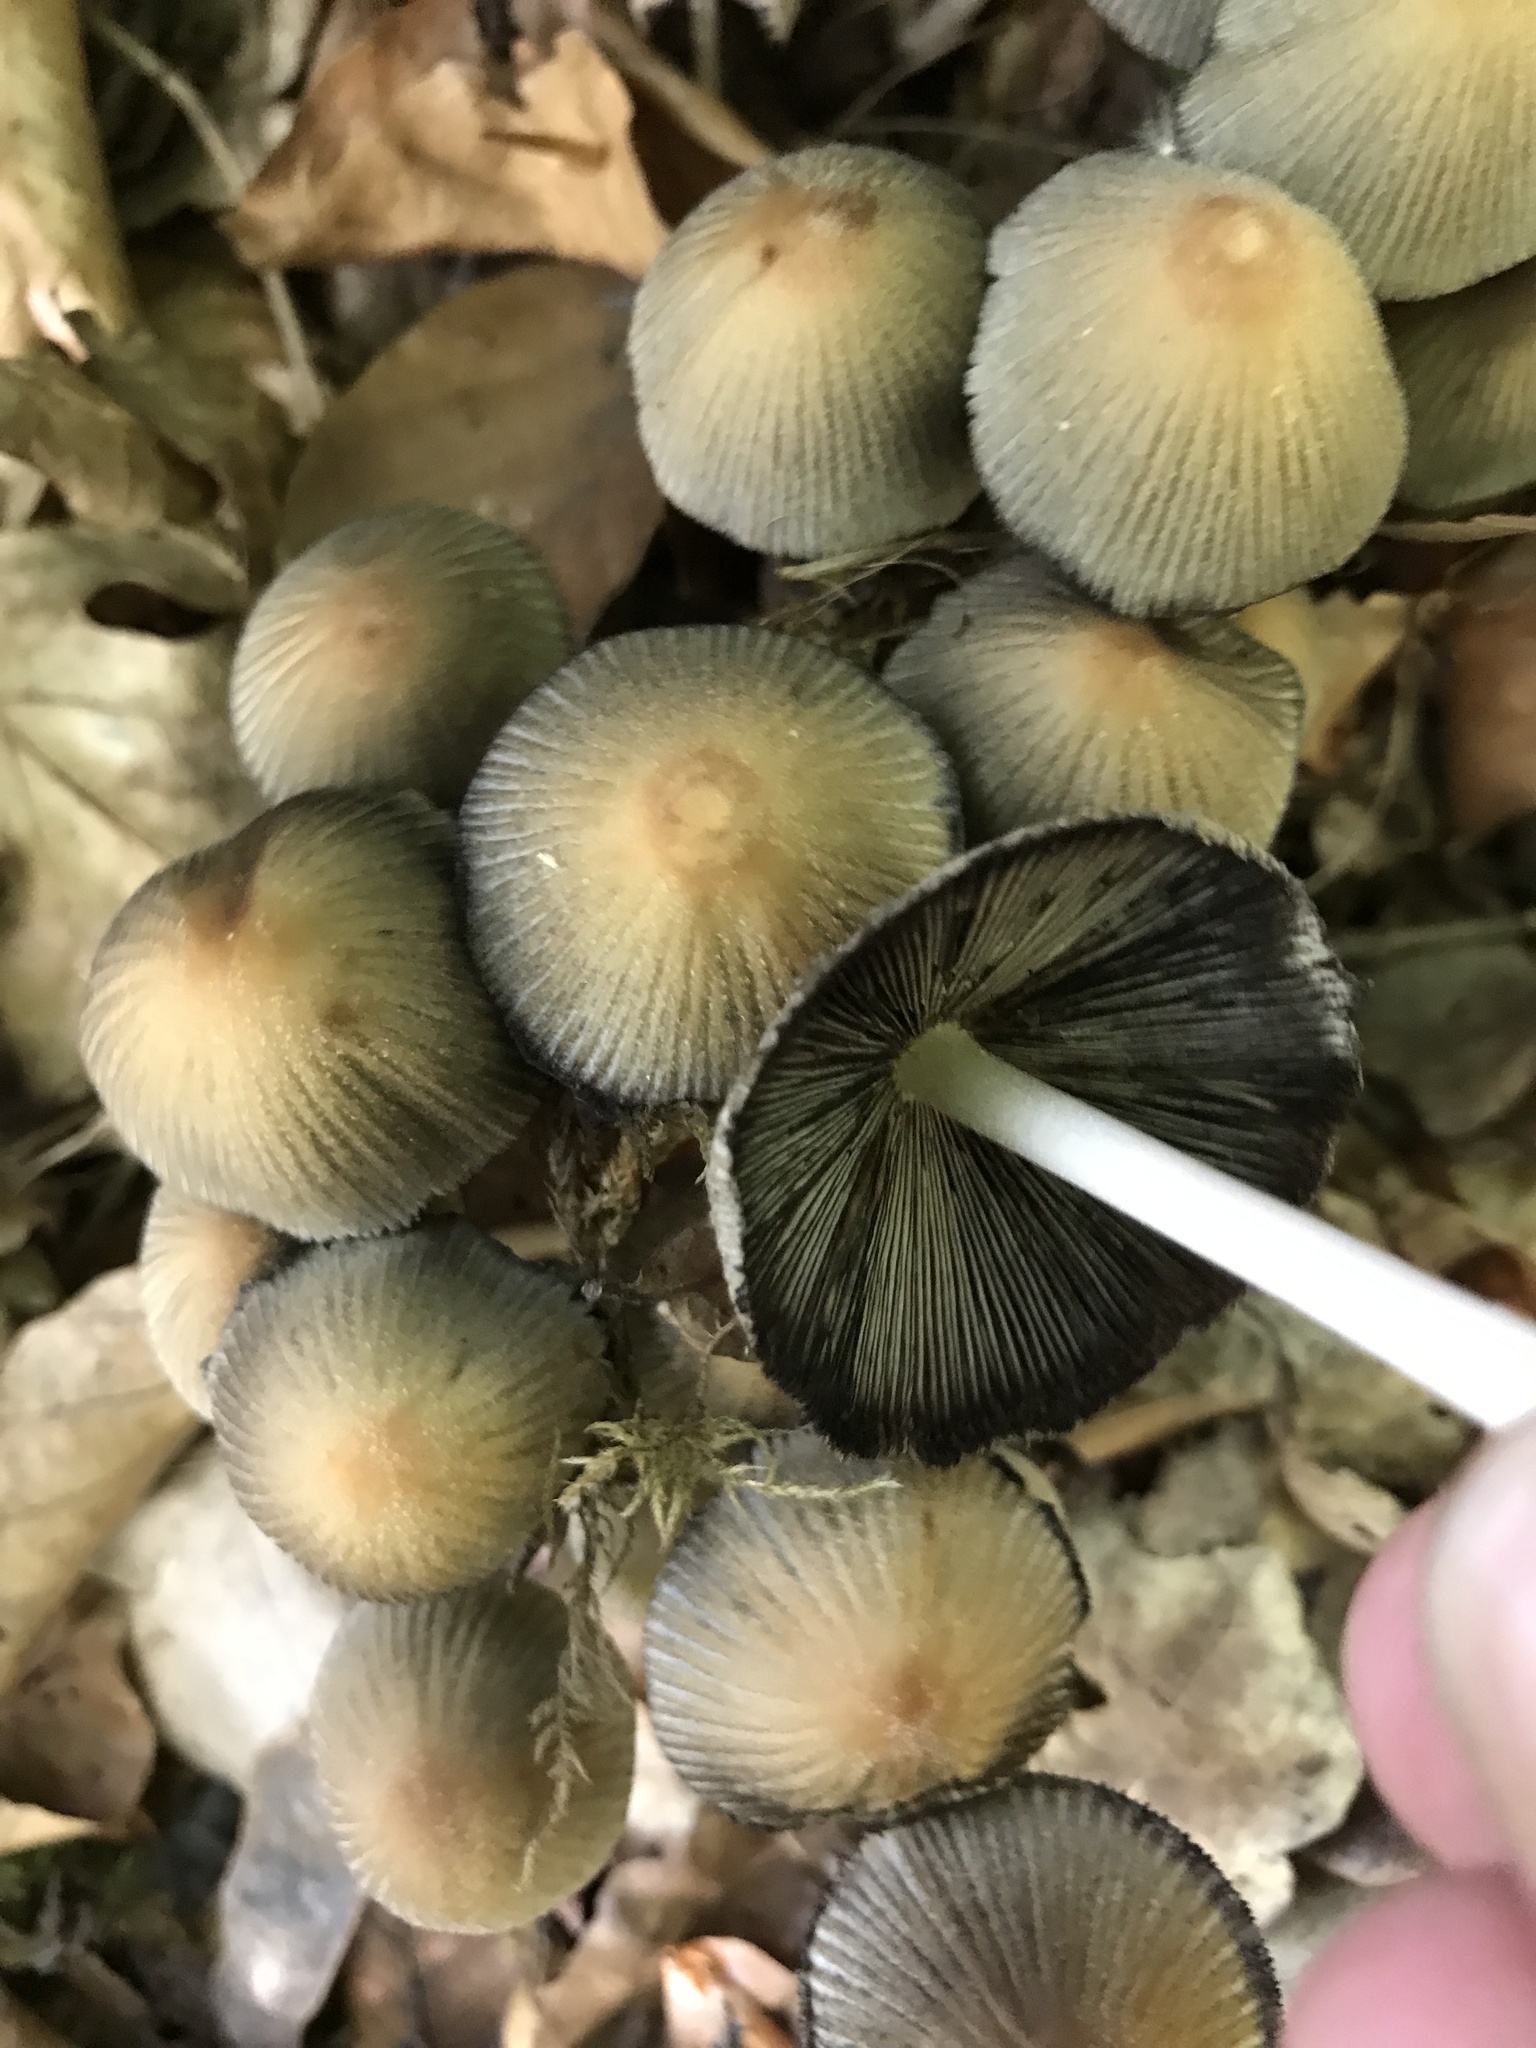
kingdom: Fungi
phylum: Basidiomycota
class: Agaricomycetes
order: Agaricales
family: Psathyrellaceae
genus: Coprinellus
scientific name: Coprinellus micaceus
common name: Glistening ink-cap
